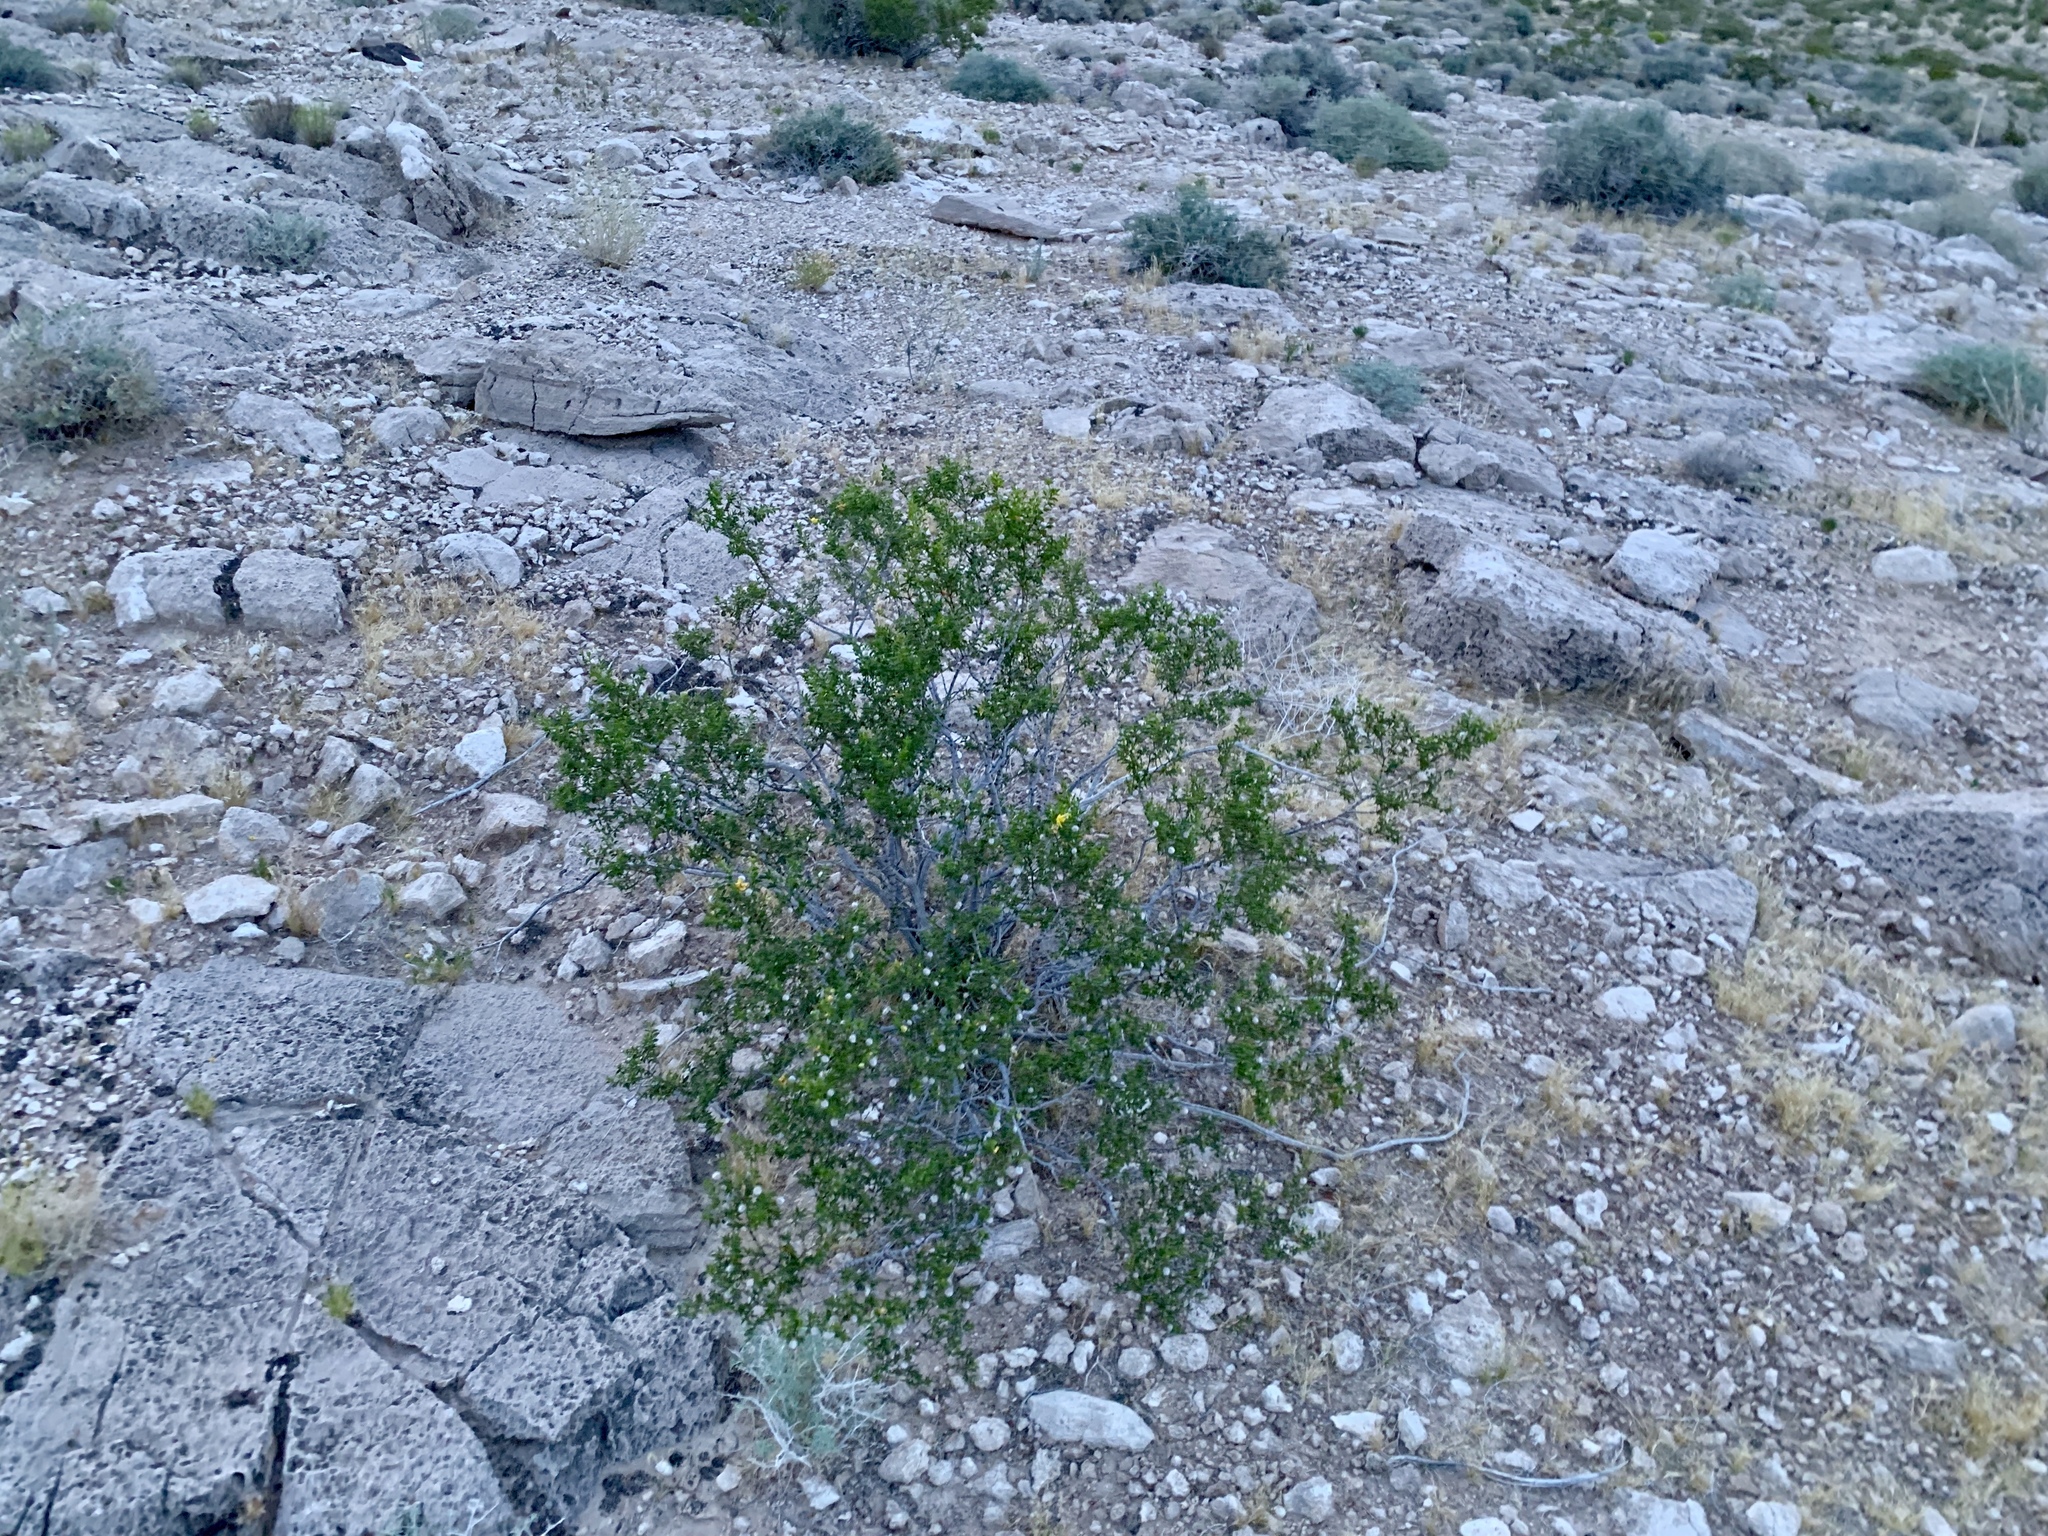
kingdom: Plantae
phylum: Tracheophyta
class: Magnoliopsida
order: Zygophyllales
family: Zygophyllaceae
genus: Larrea
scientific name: Larrea tridentata
